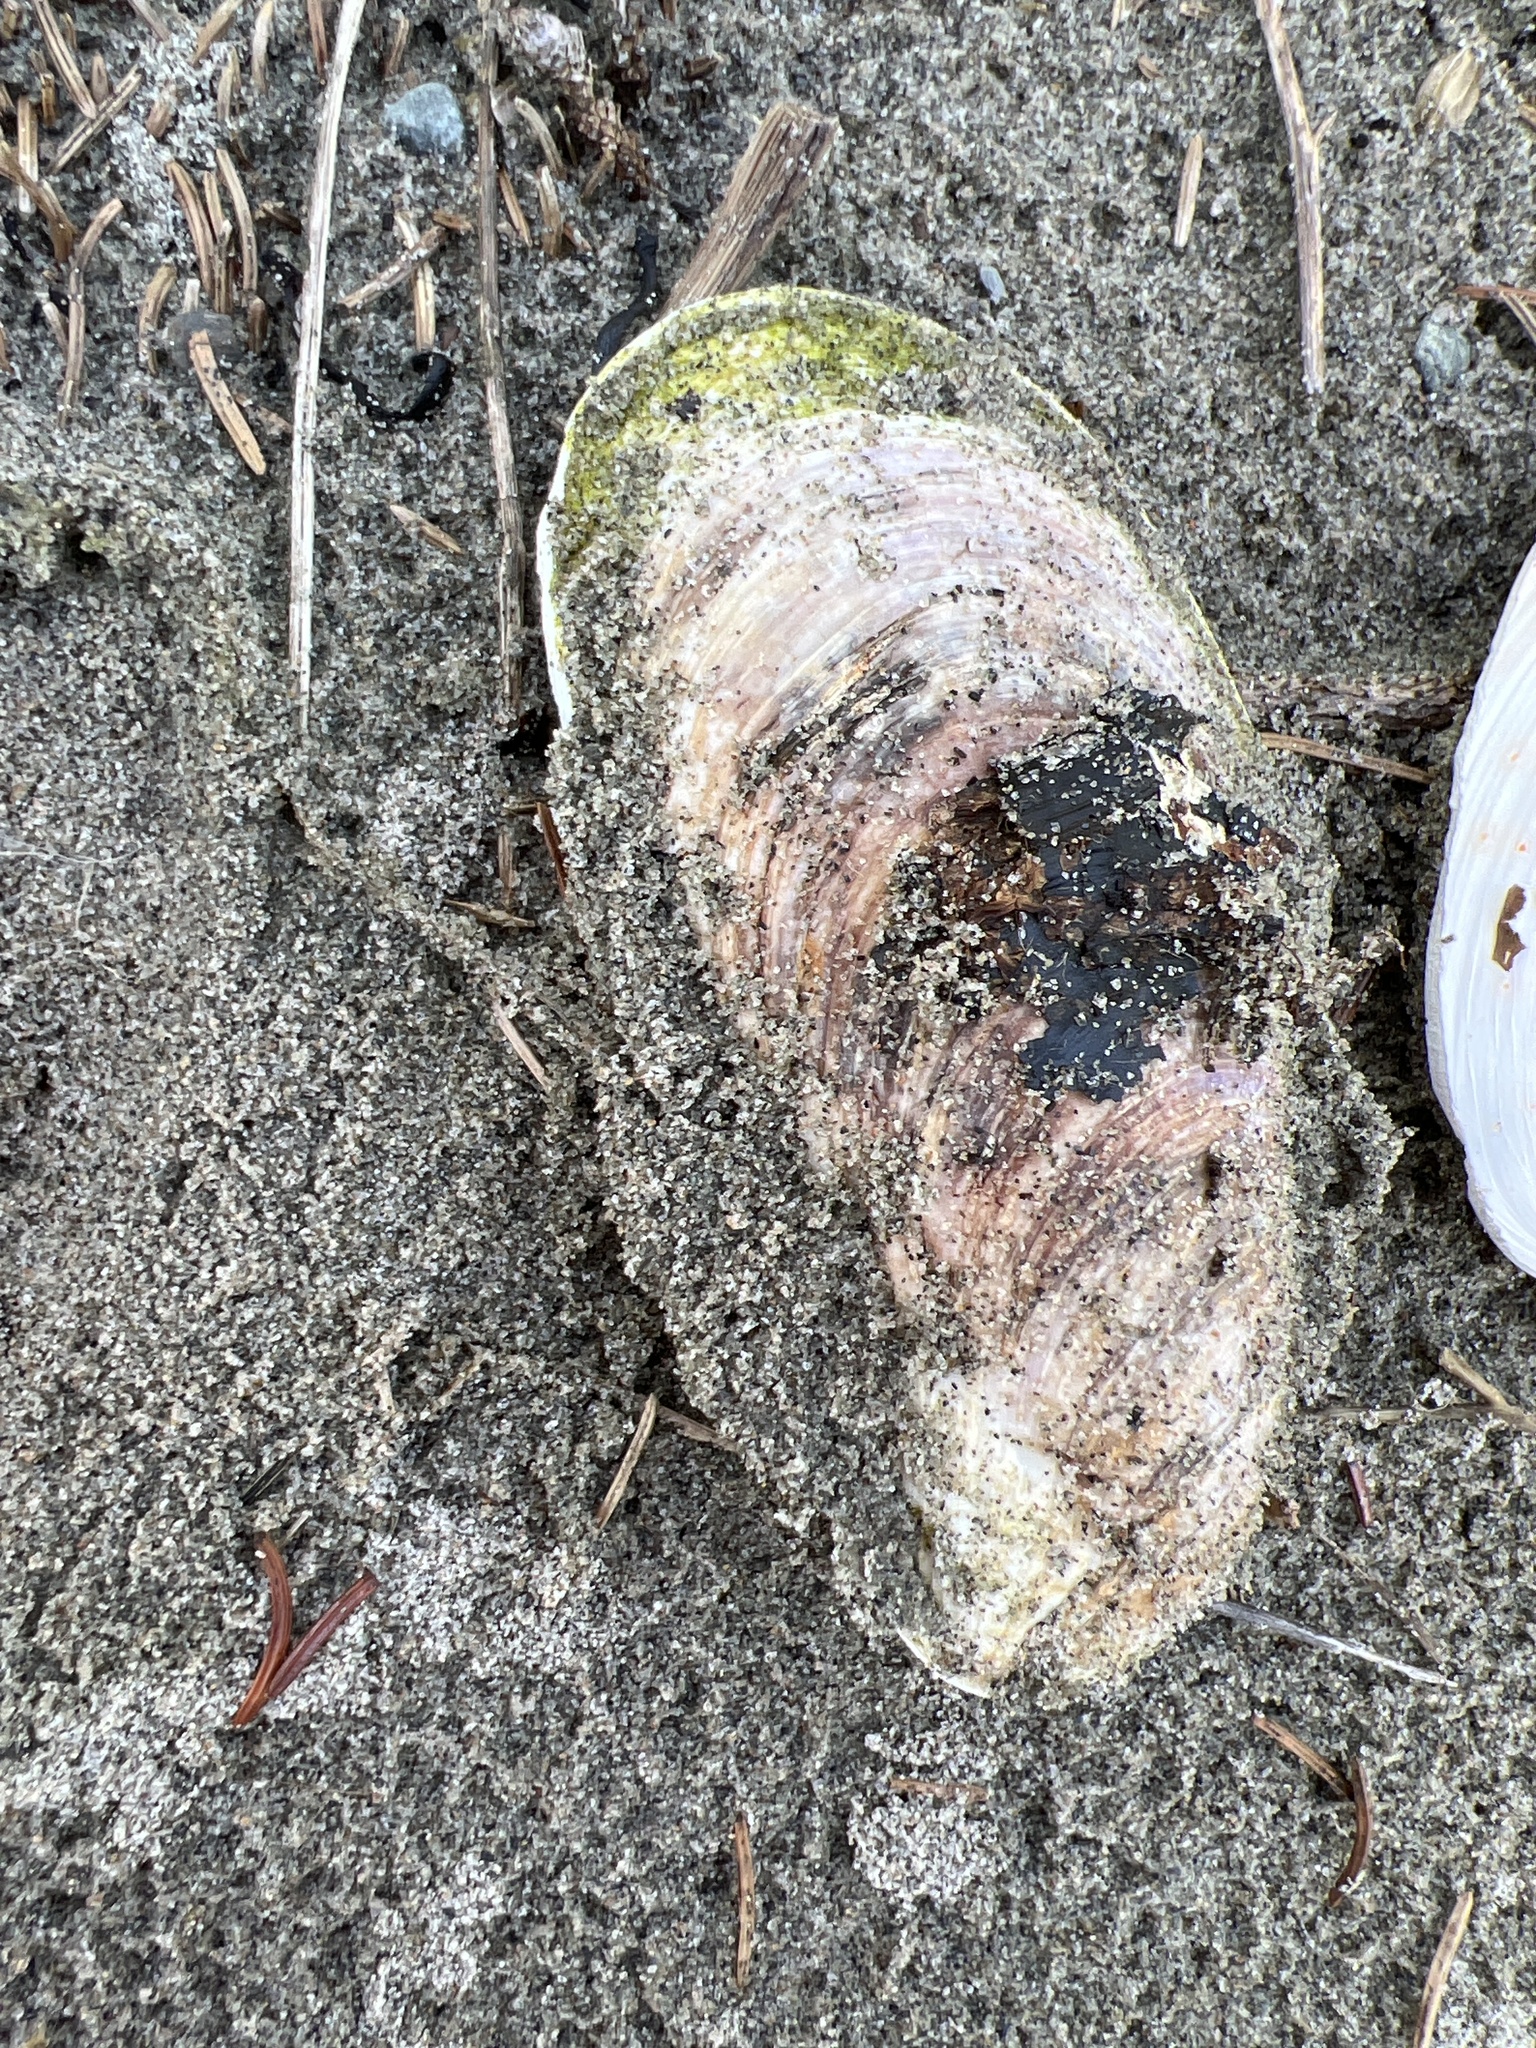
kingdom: Animalia
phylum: Mollusca
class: Bivalvia
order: Mytilida
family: Mytilidae
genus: Modiolus
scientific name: Modiolus modiolus
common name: Horse-mussel
